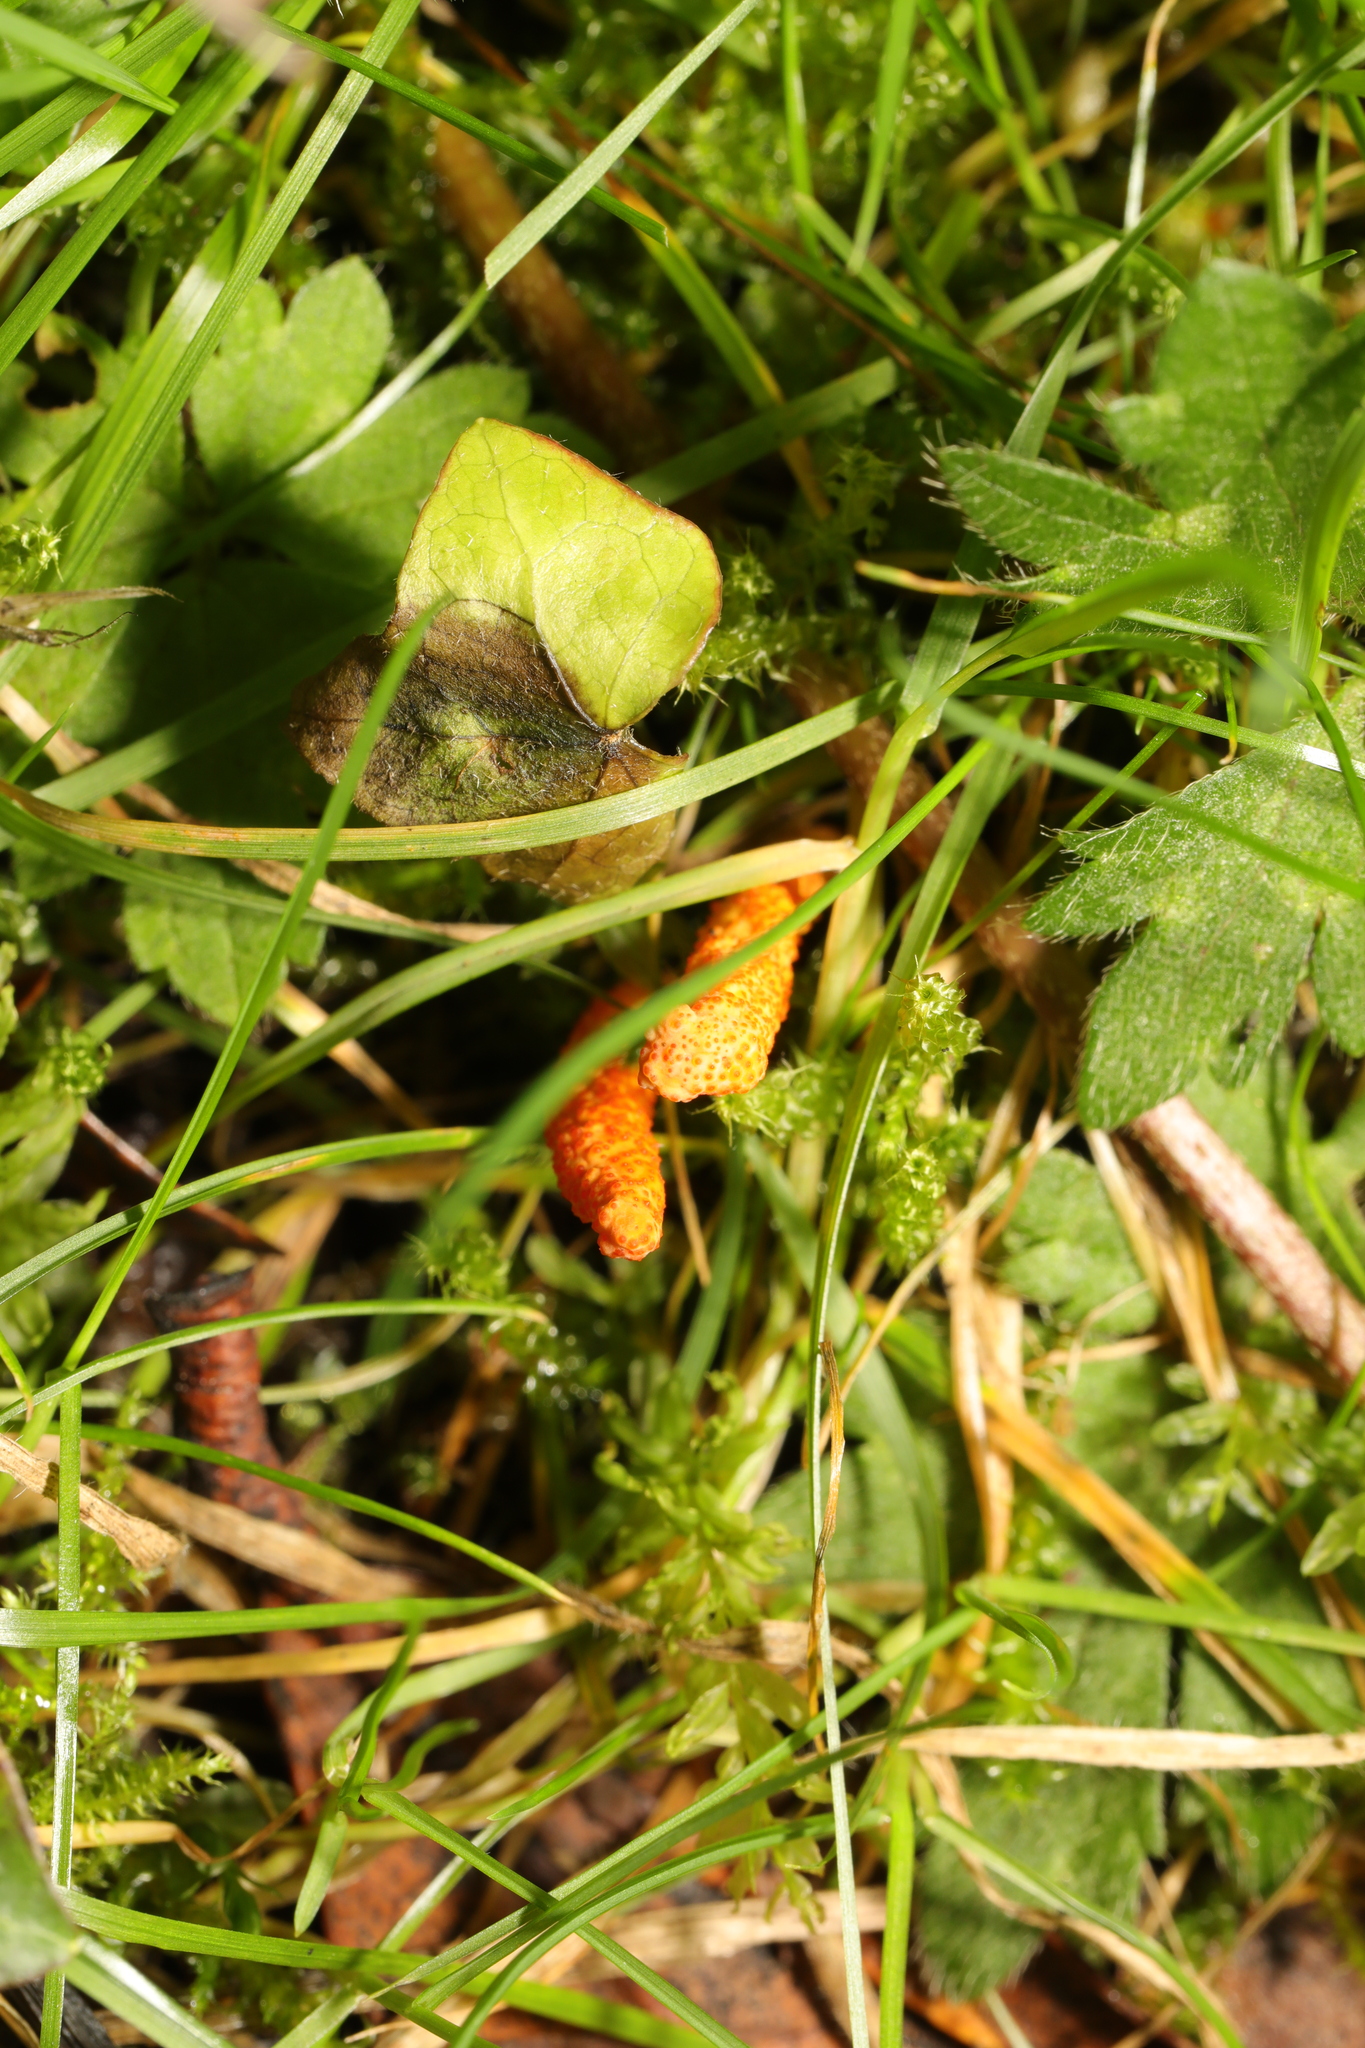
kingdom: Fungi
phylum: Ascomycota
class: Sordariomycetes
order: Hypocreales
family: Cordycipitaceae
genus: Cordyceps
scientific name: Cordyceps militaris
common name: Scarlet caterpillar fungus
